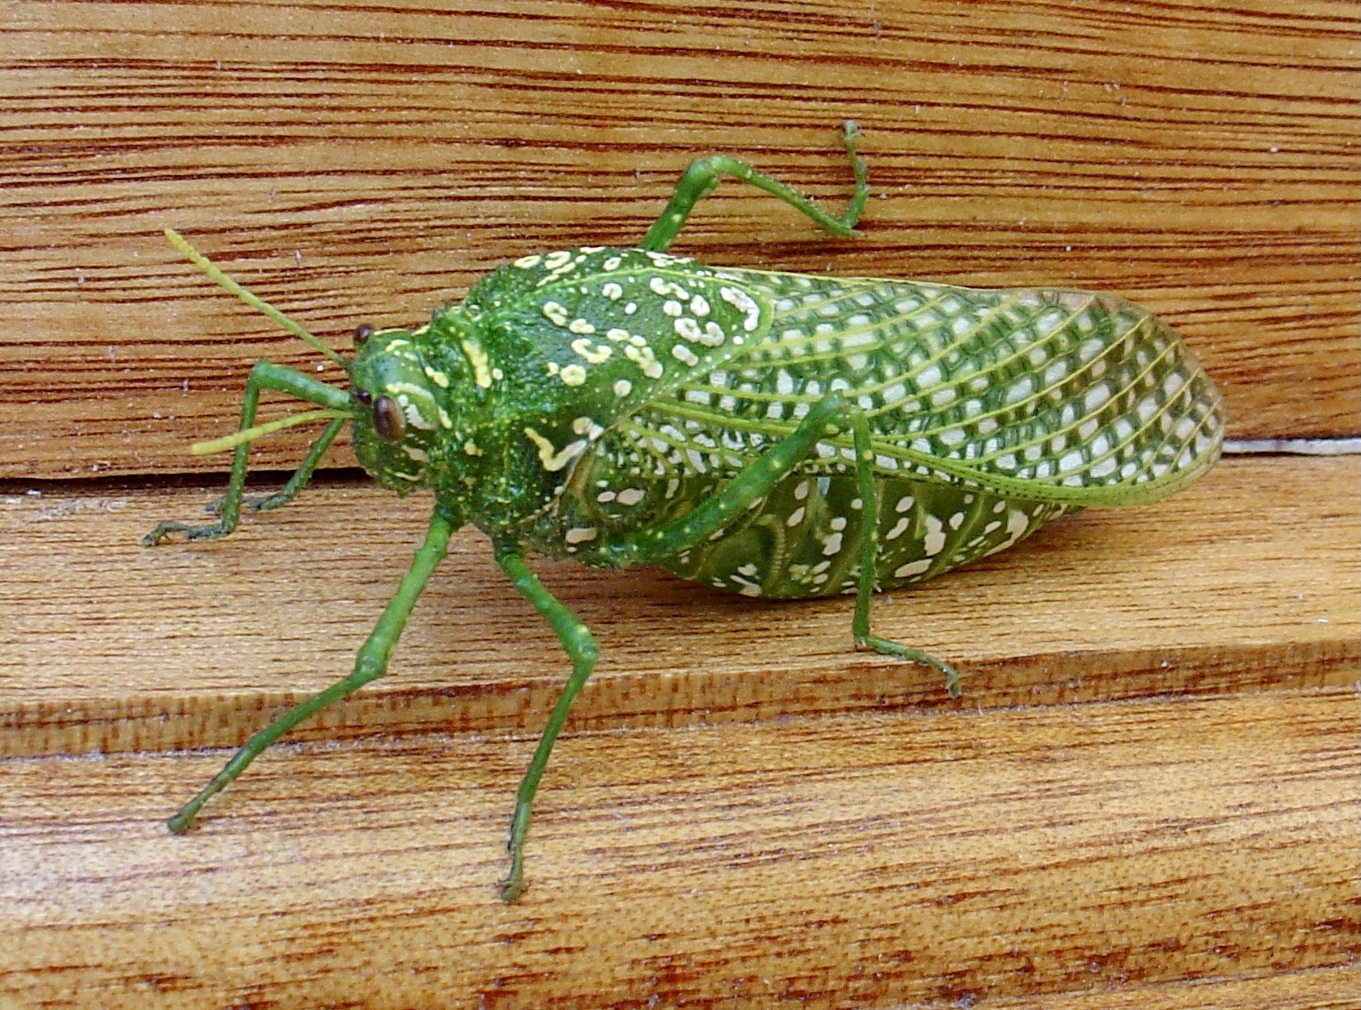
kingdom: Animalia
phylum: Arthropoda
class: Insecta
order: Orthoptera
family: Pneumoridae
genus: Physemacris
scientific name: Physemacris variolosa
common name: Silver spotted bladder grasshopper
